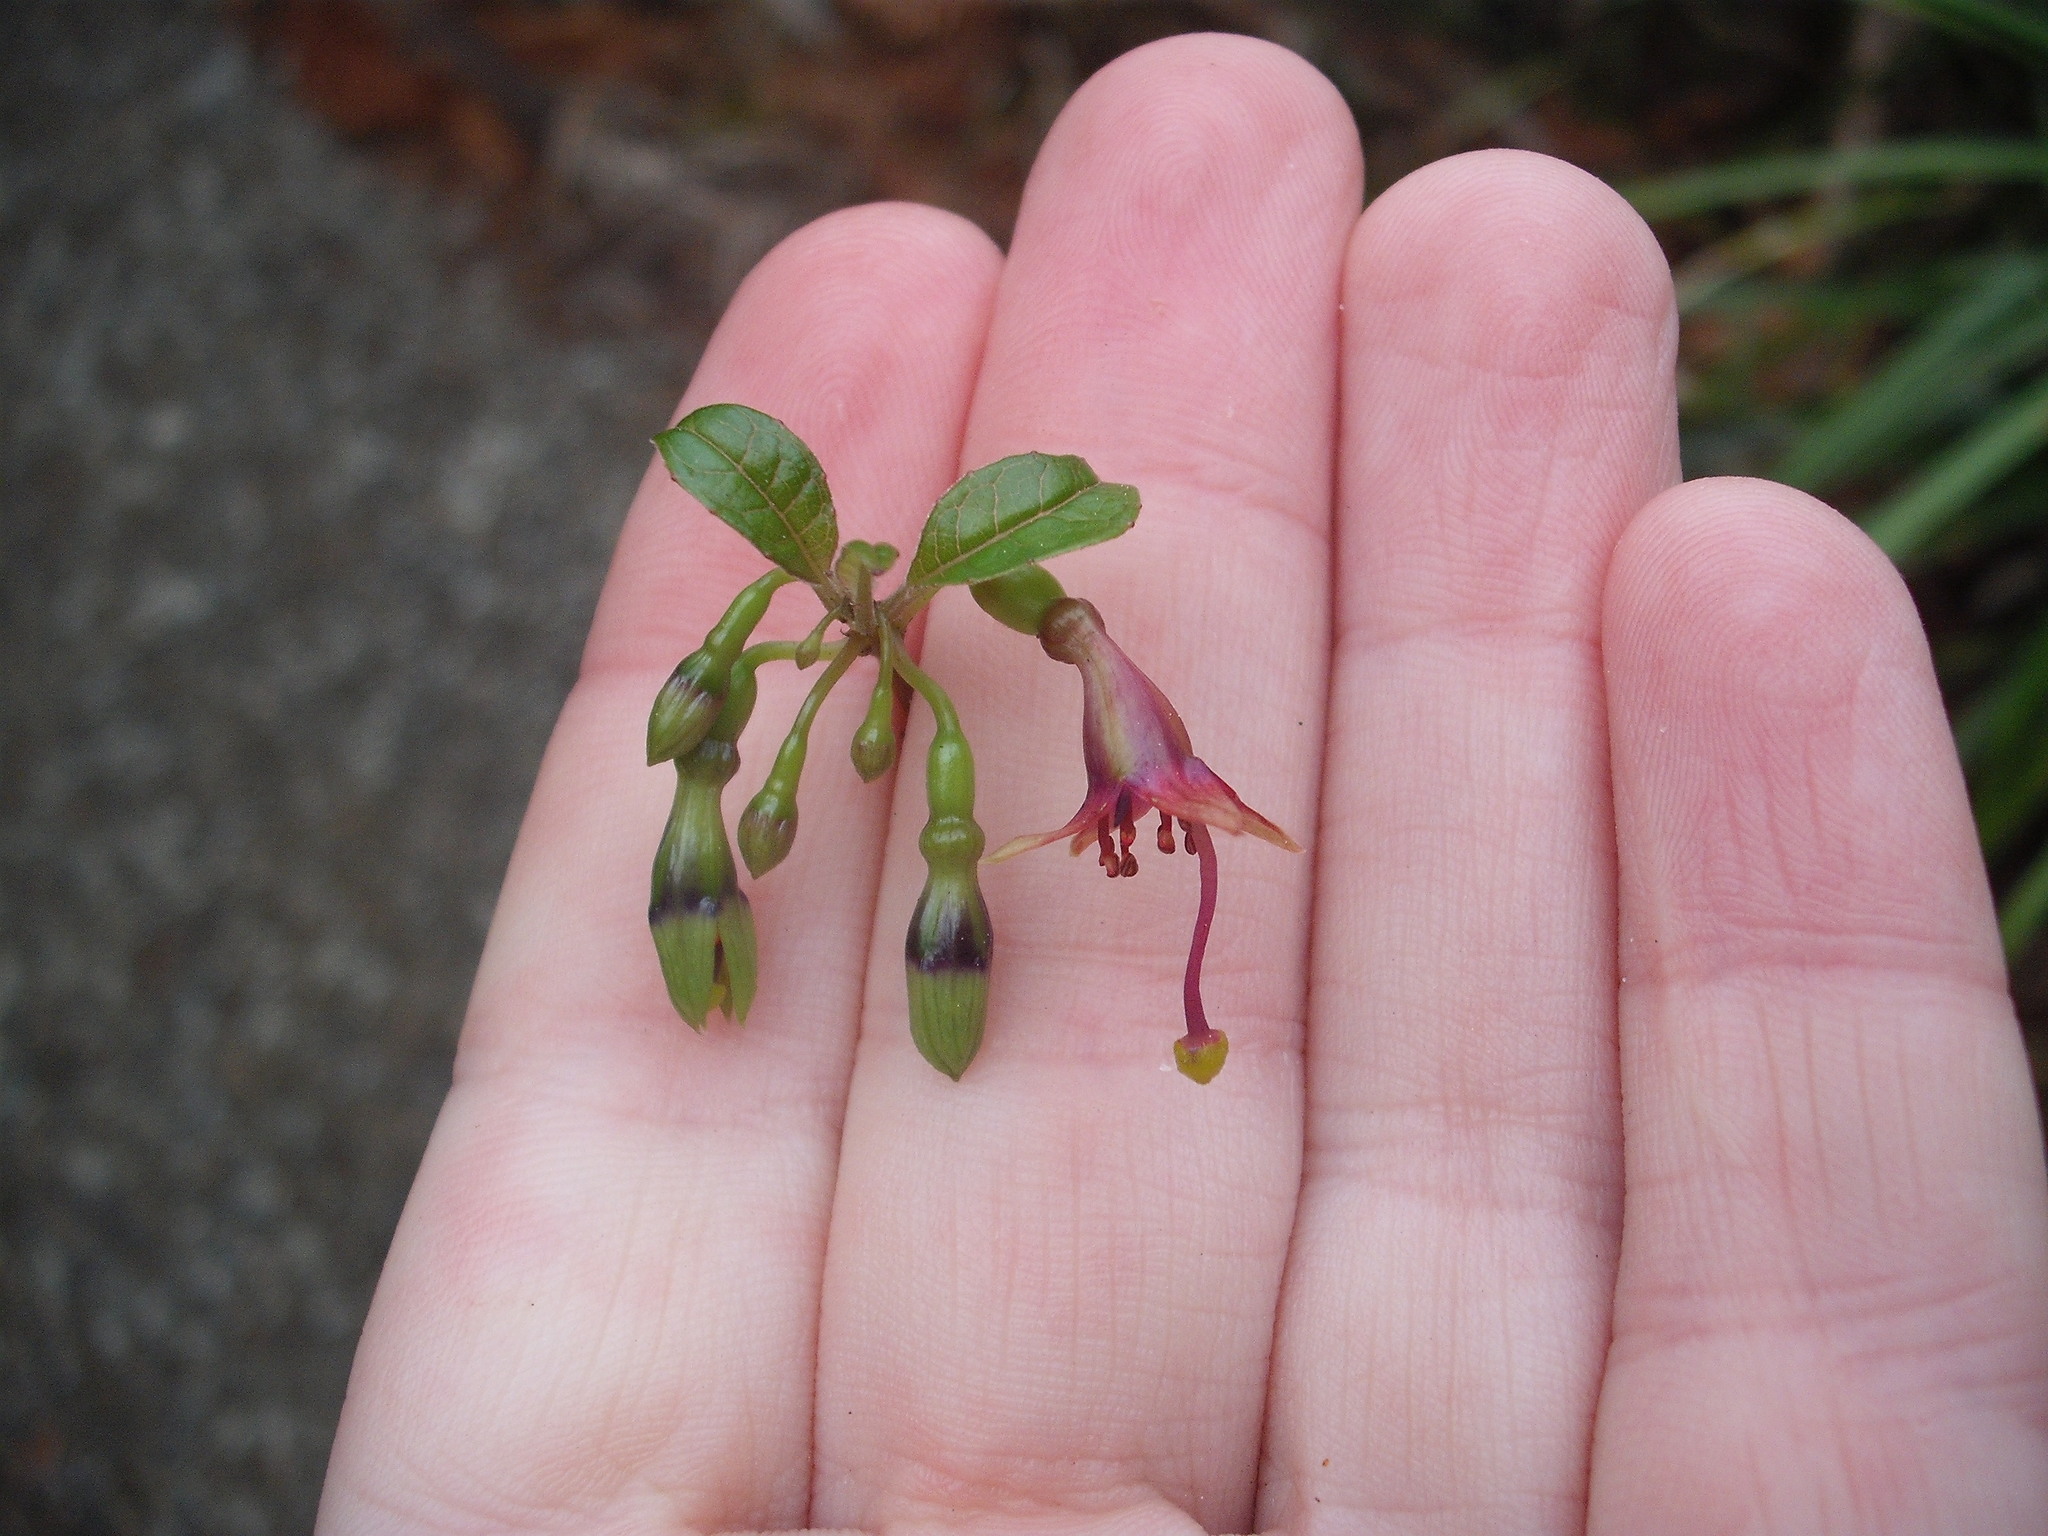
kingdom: Plantae
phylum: Tracheophyta
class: Magnoliopsida
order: Myrtales
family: Onagraceae
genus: Fuchsia
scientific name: Fuchsia excorticata
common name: Tree fuchsia
